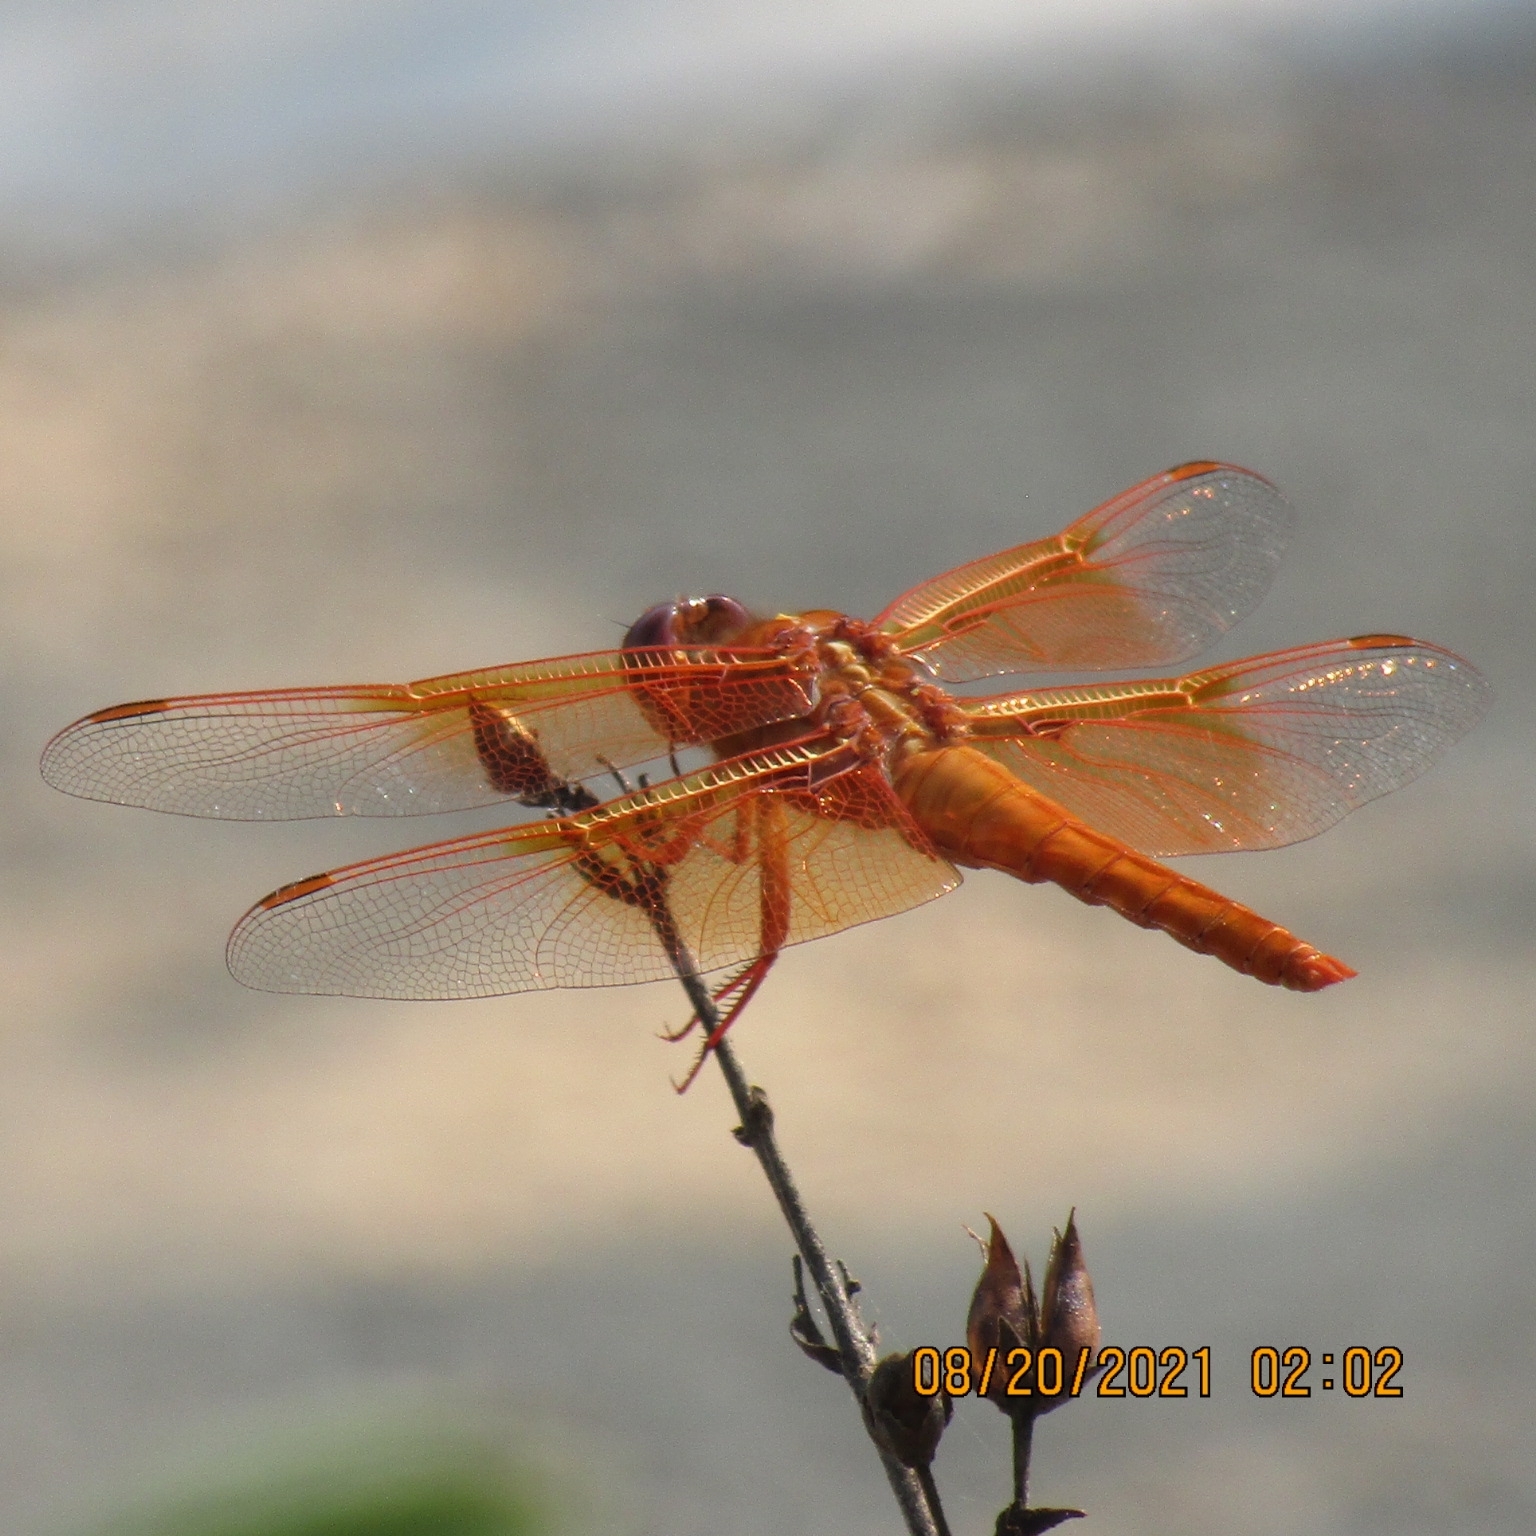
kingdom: Animalia
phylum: Arthropoda
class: Insecta
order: Odonata
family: Libellulidae
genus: Libellula
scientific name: Libellula saturata
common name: Flame skimmer
